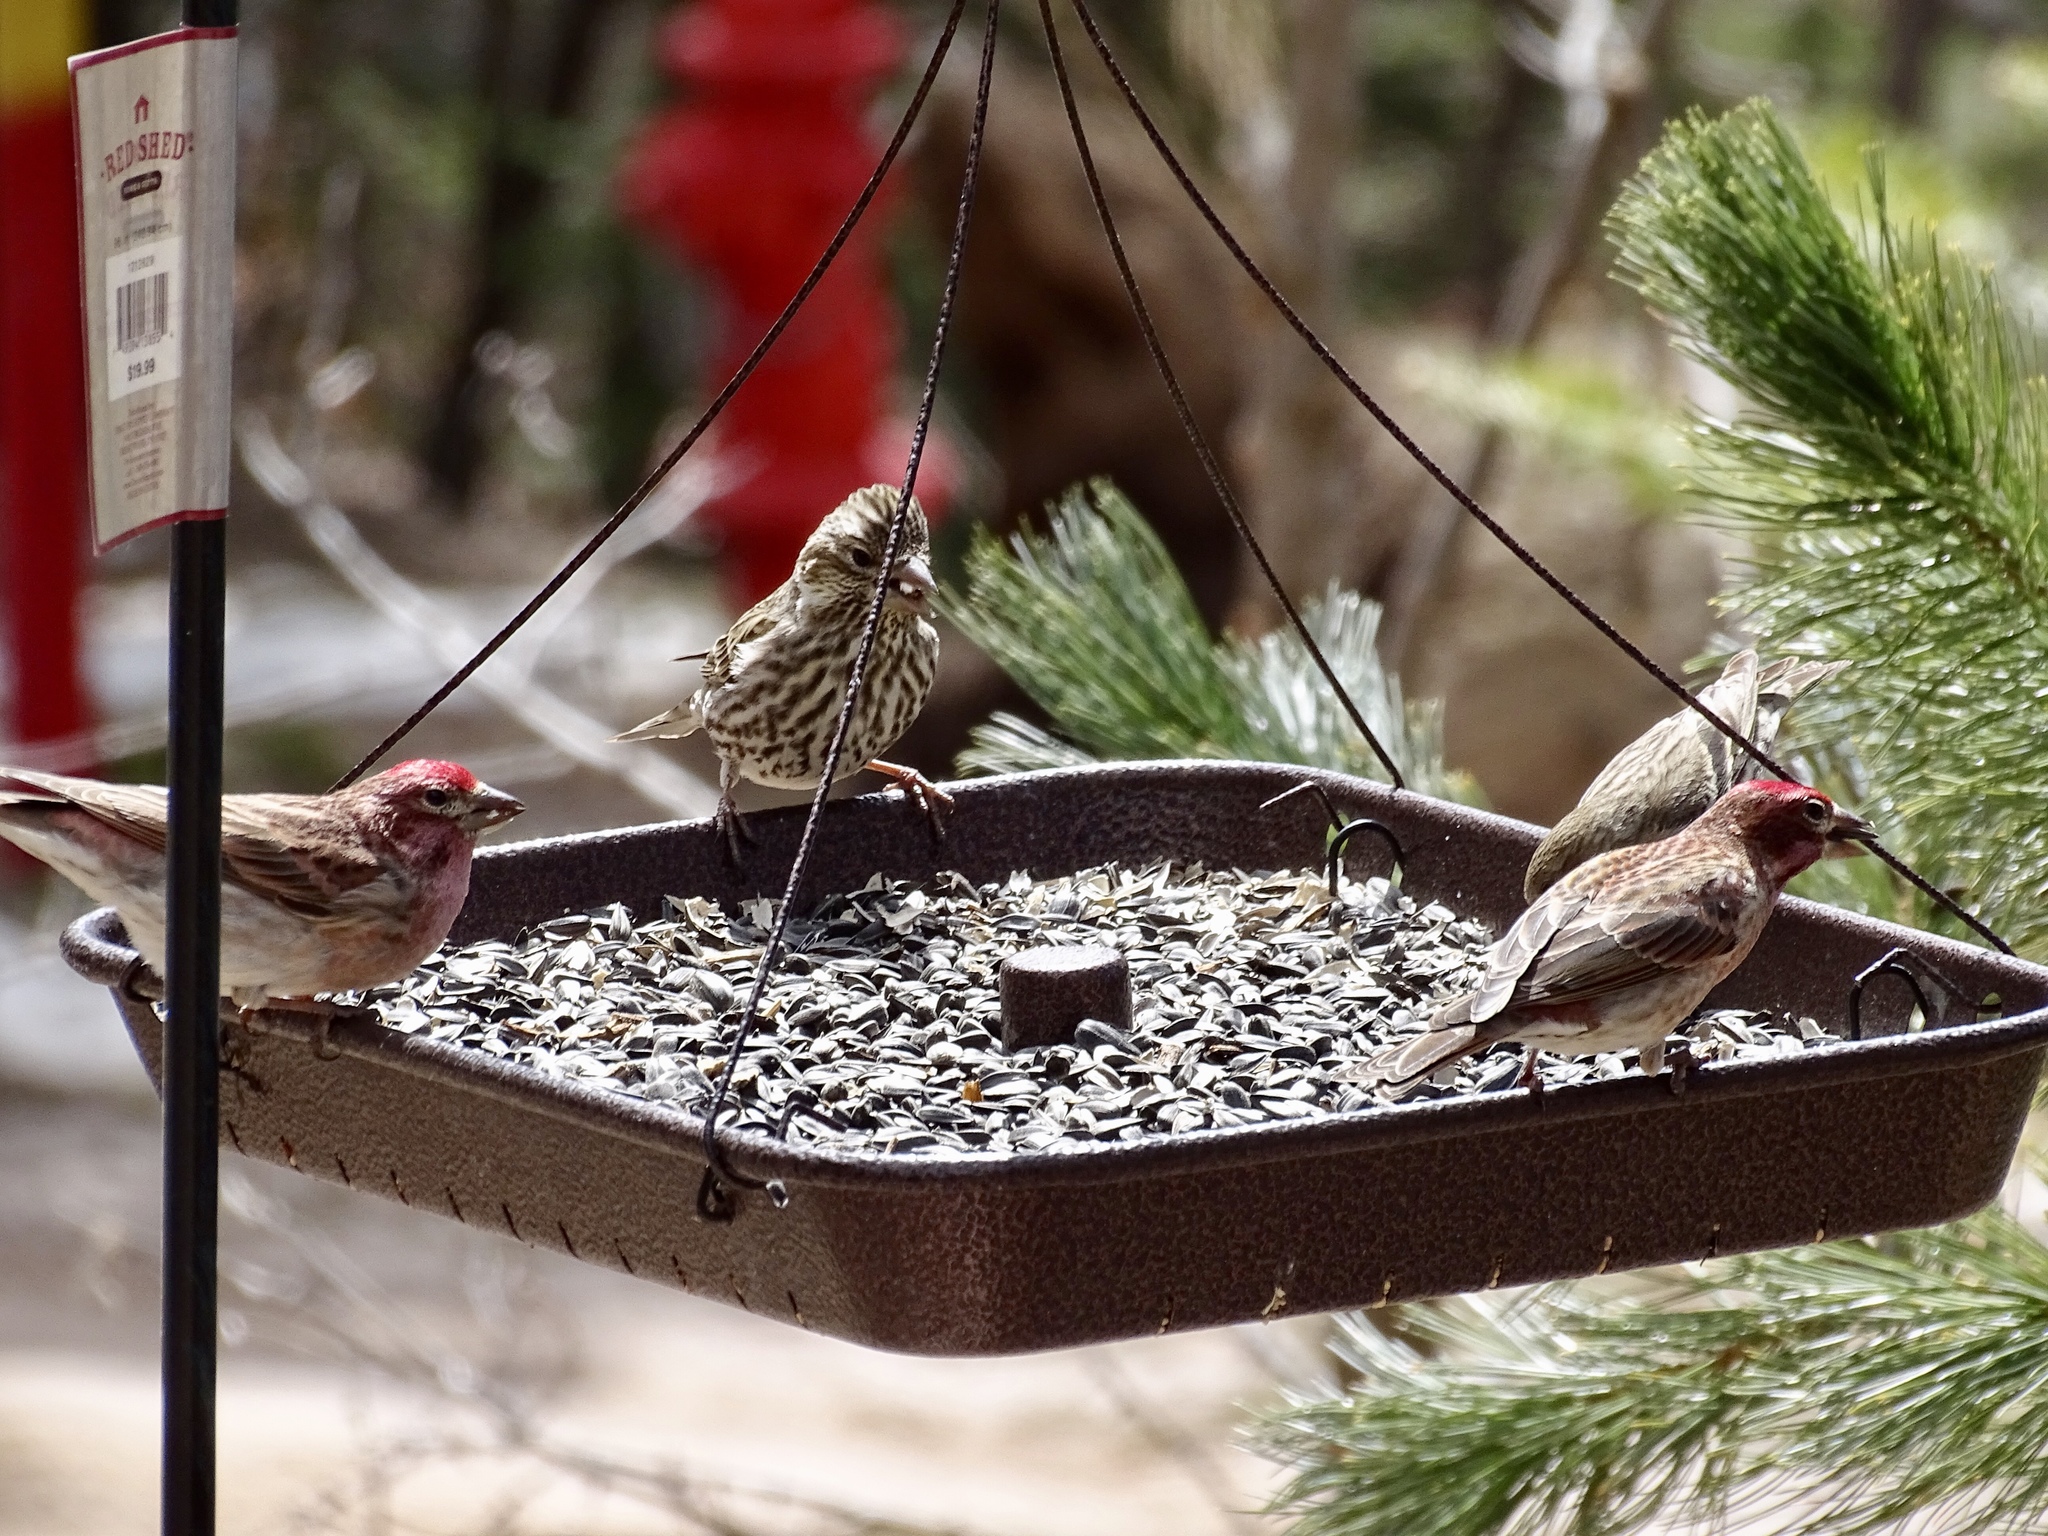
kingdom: Animalia
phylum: Chordata
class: Aves
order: Passeriformes
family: Fringillidae
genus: Haemorhous
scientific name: Haemorhous cassinii
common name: Cassin's finch
